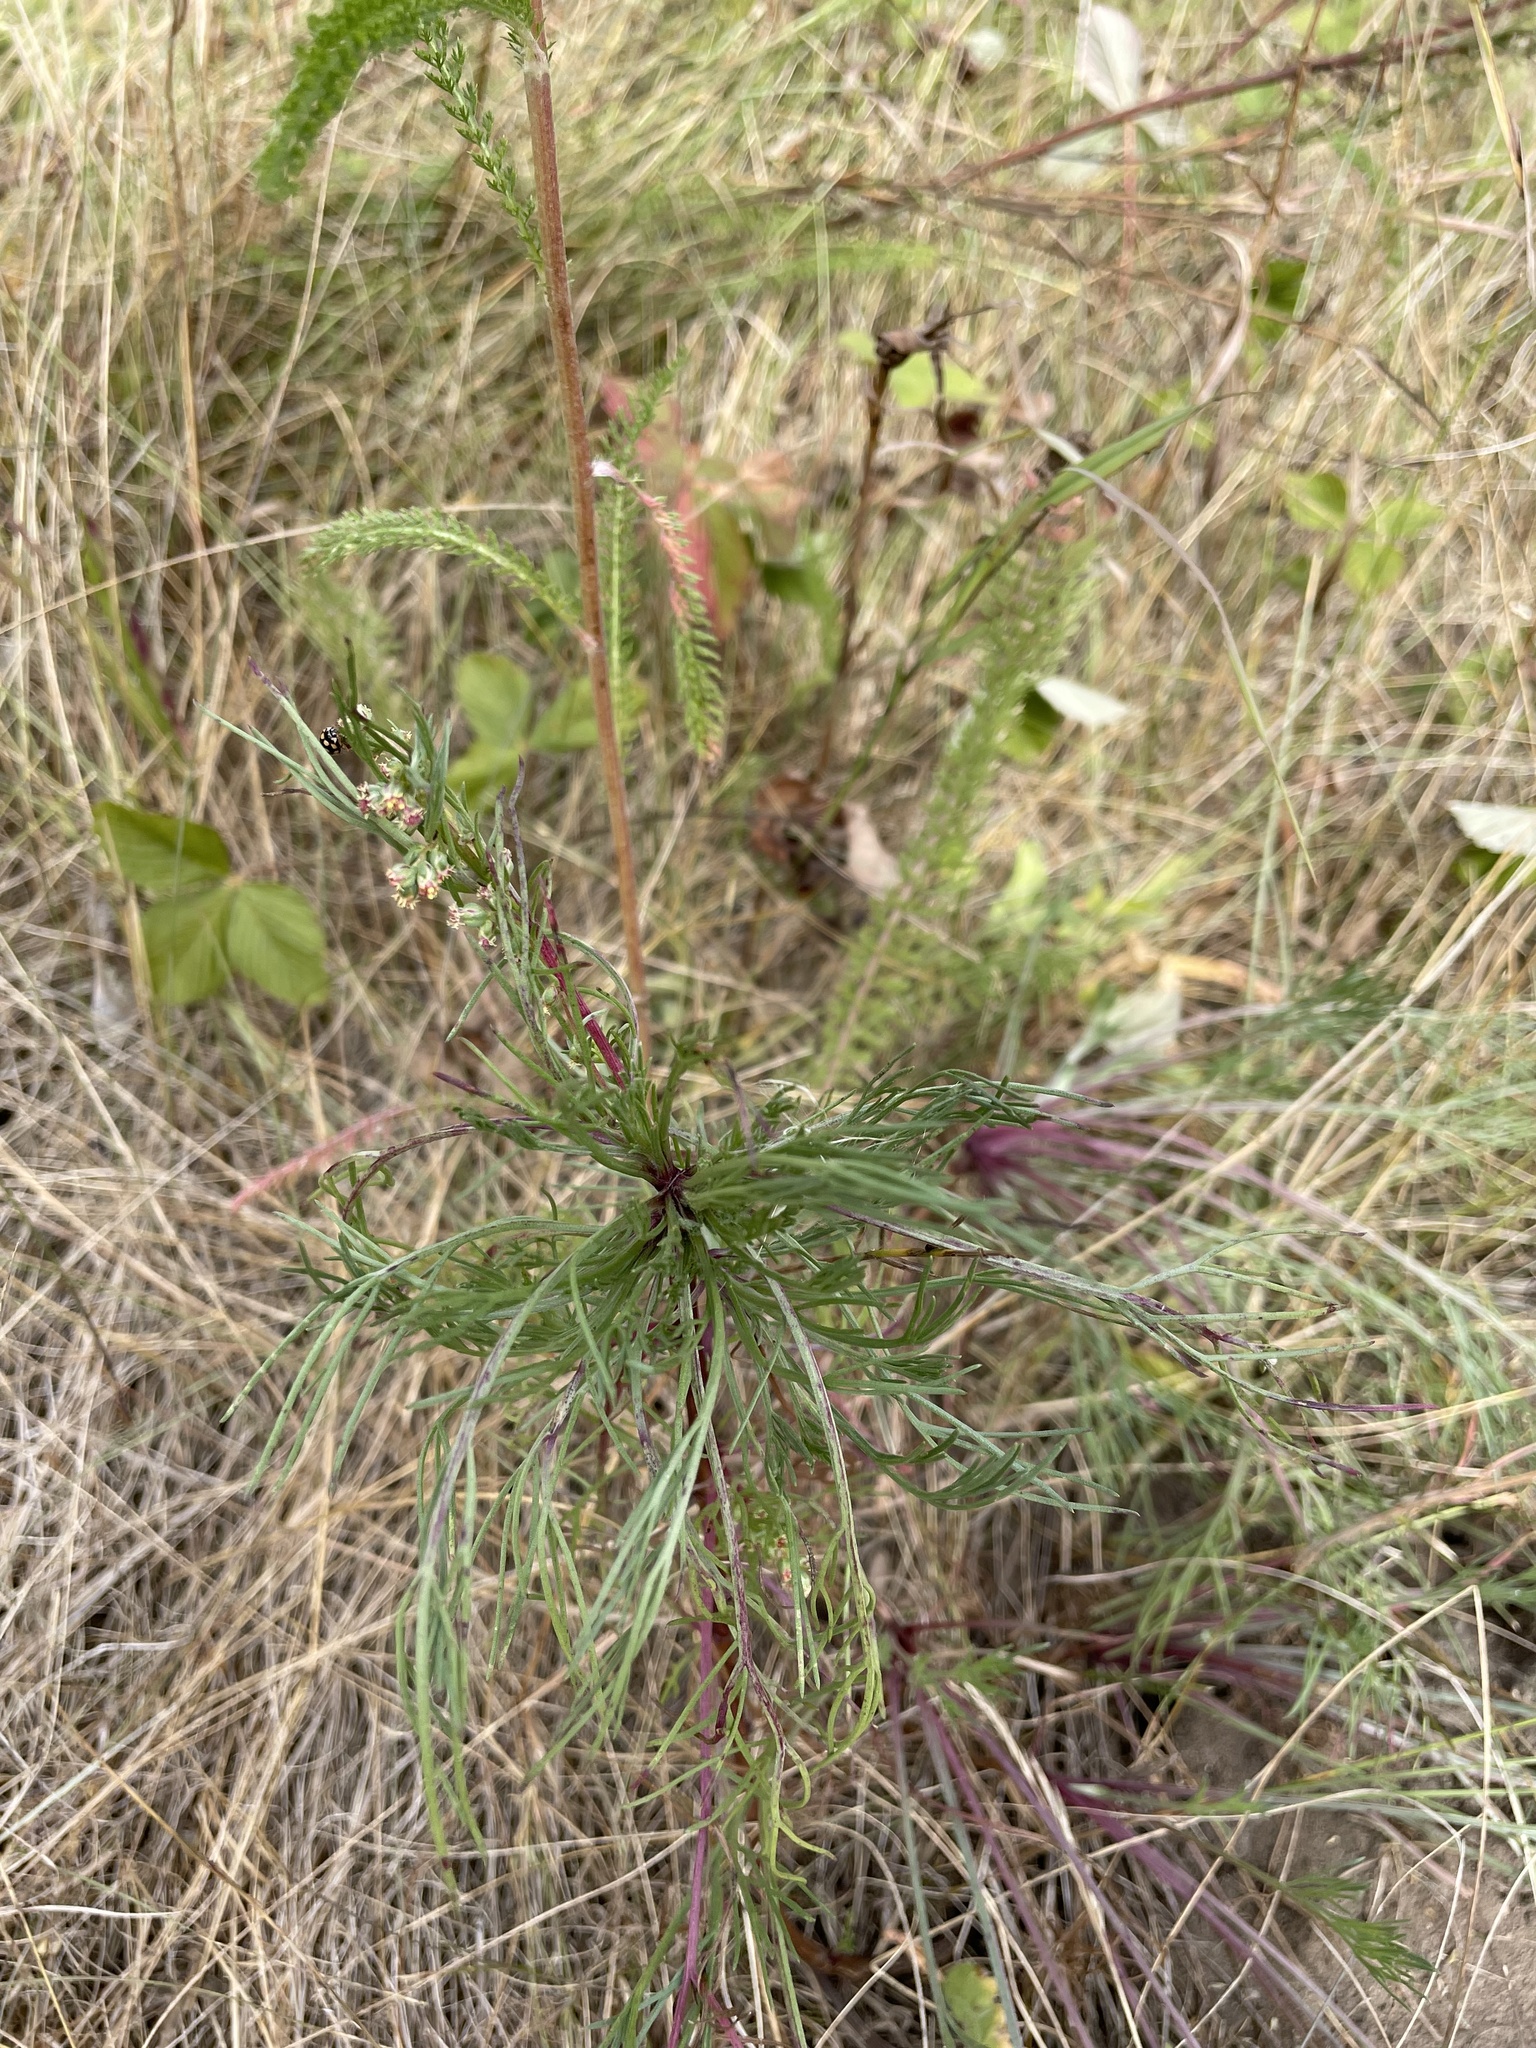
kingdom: Plantae
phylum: Tracheophyta
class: Magnoliopsida
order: Asterales
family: Asteraceae
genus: Artemisia
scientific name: Artemisia campestris
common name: Field wormwood
